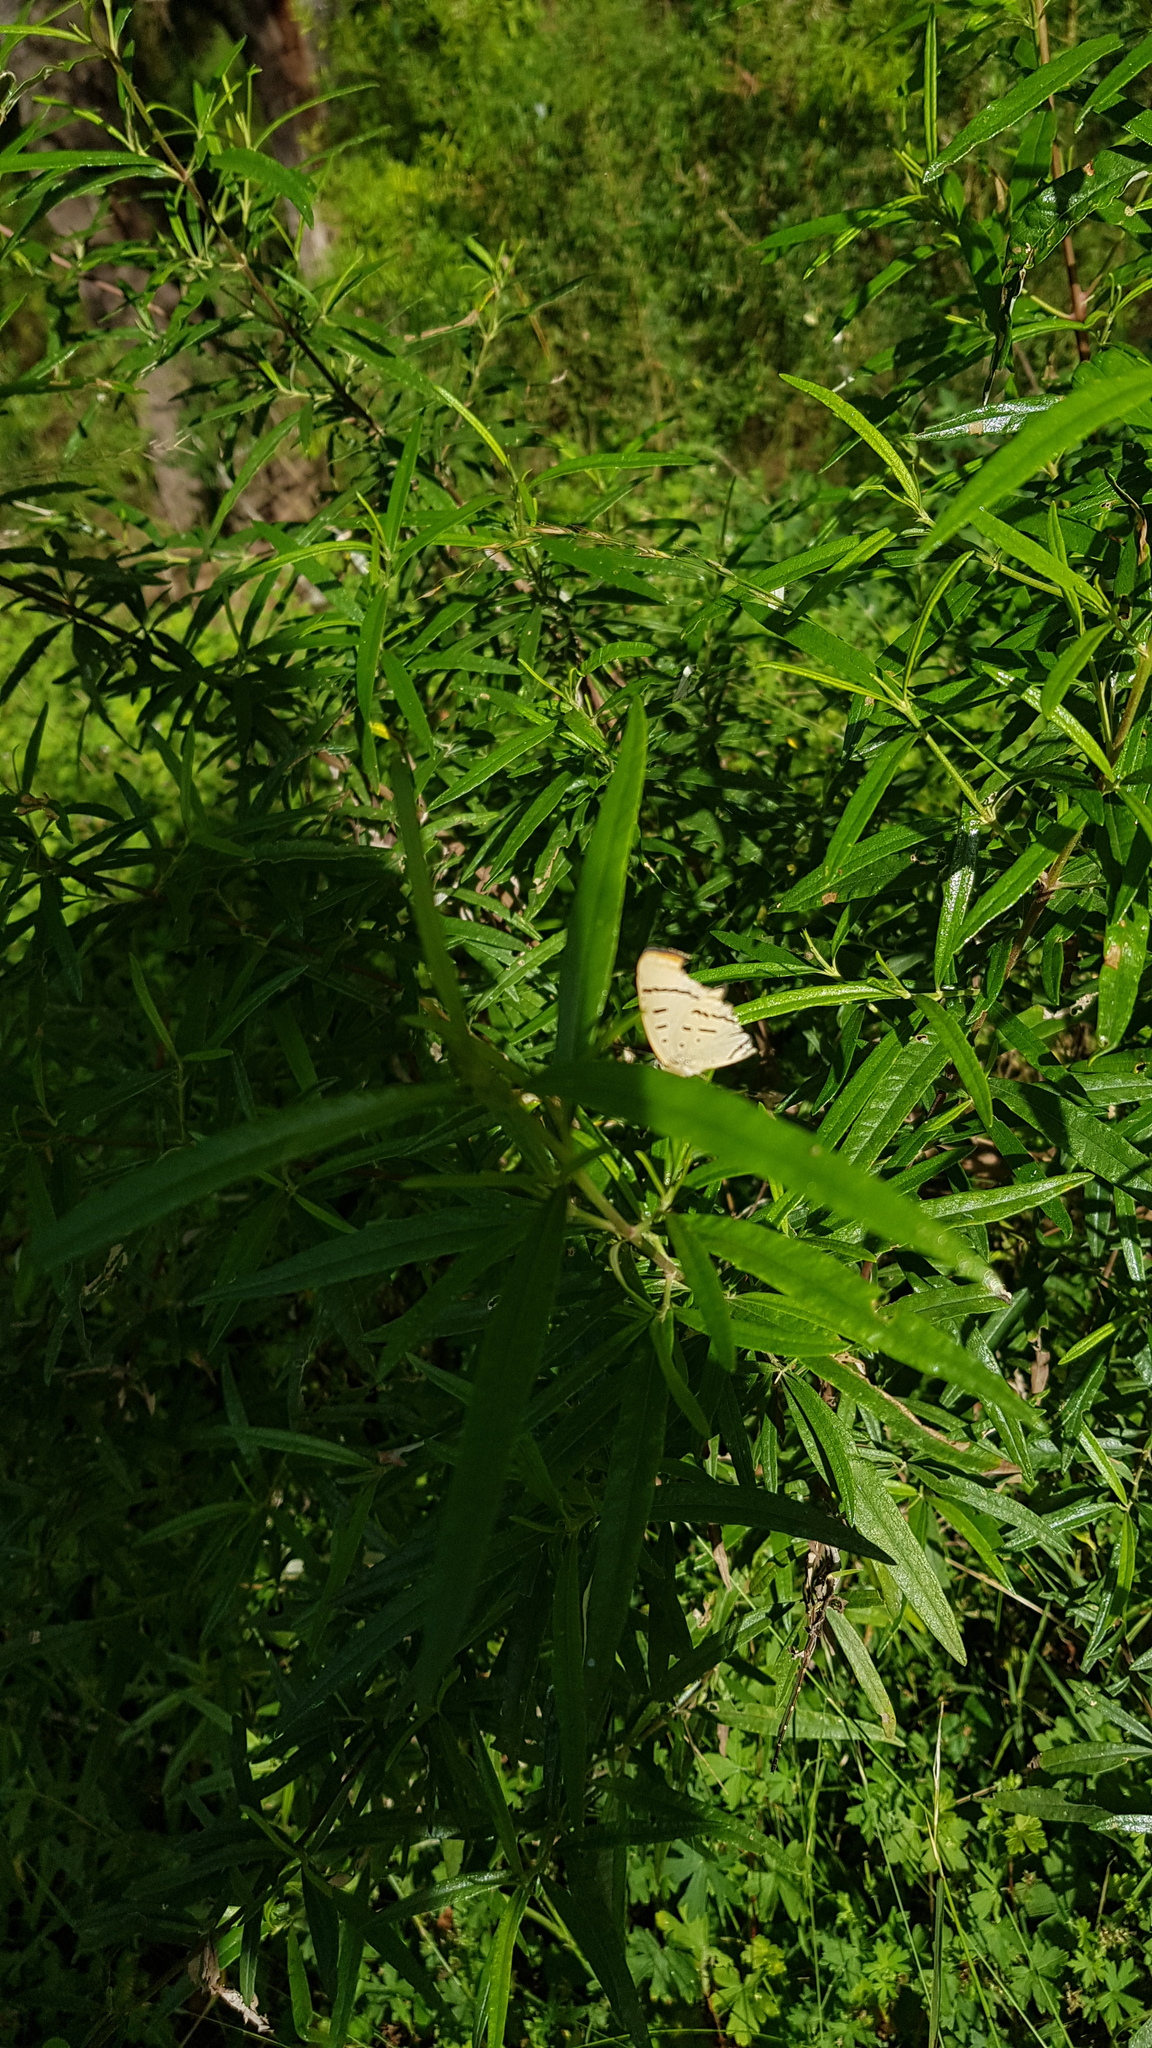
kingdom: Animalia
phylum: Arthropoda
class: Insecta
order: Lepidoptera
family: Lycaenidae
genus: Jalmenus
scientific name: Jalmenus evagoras
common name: Common imperial blue
